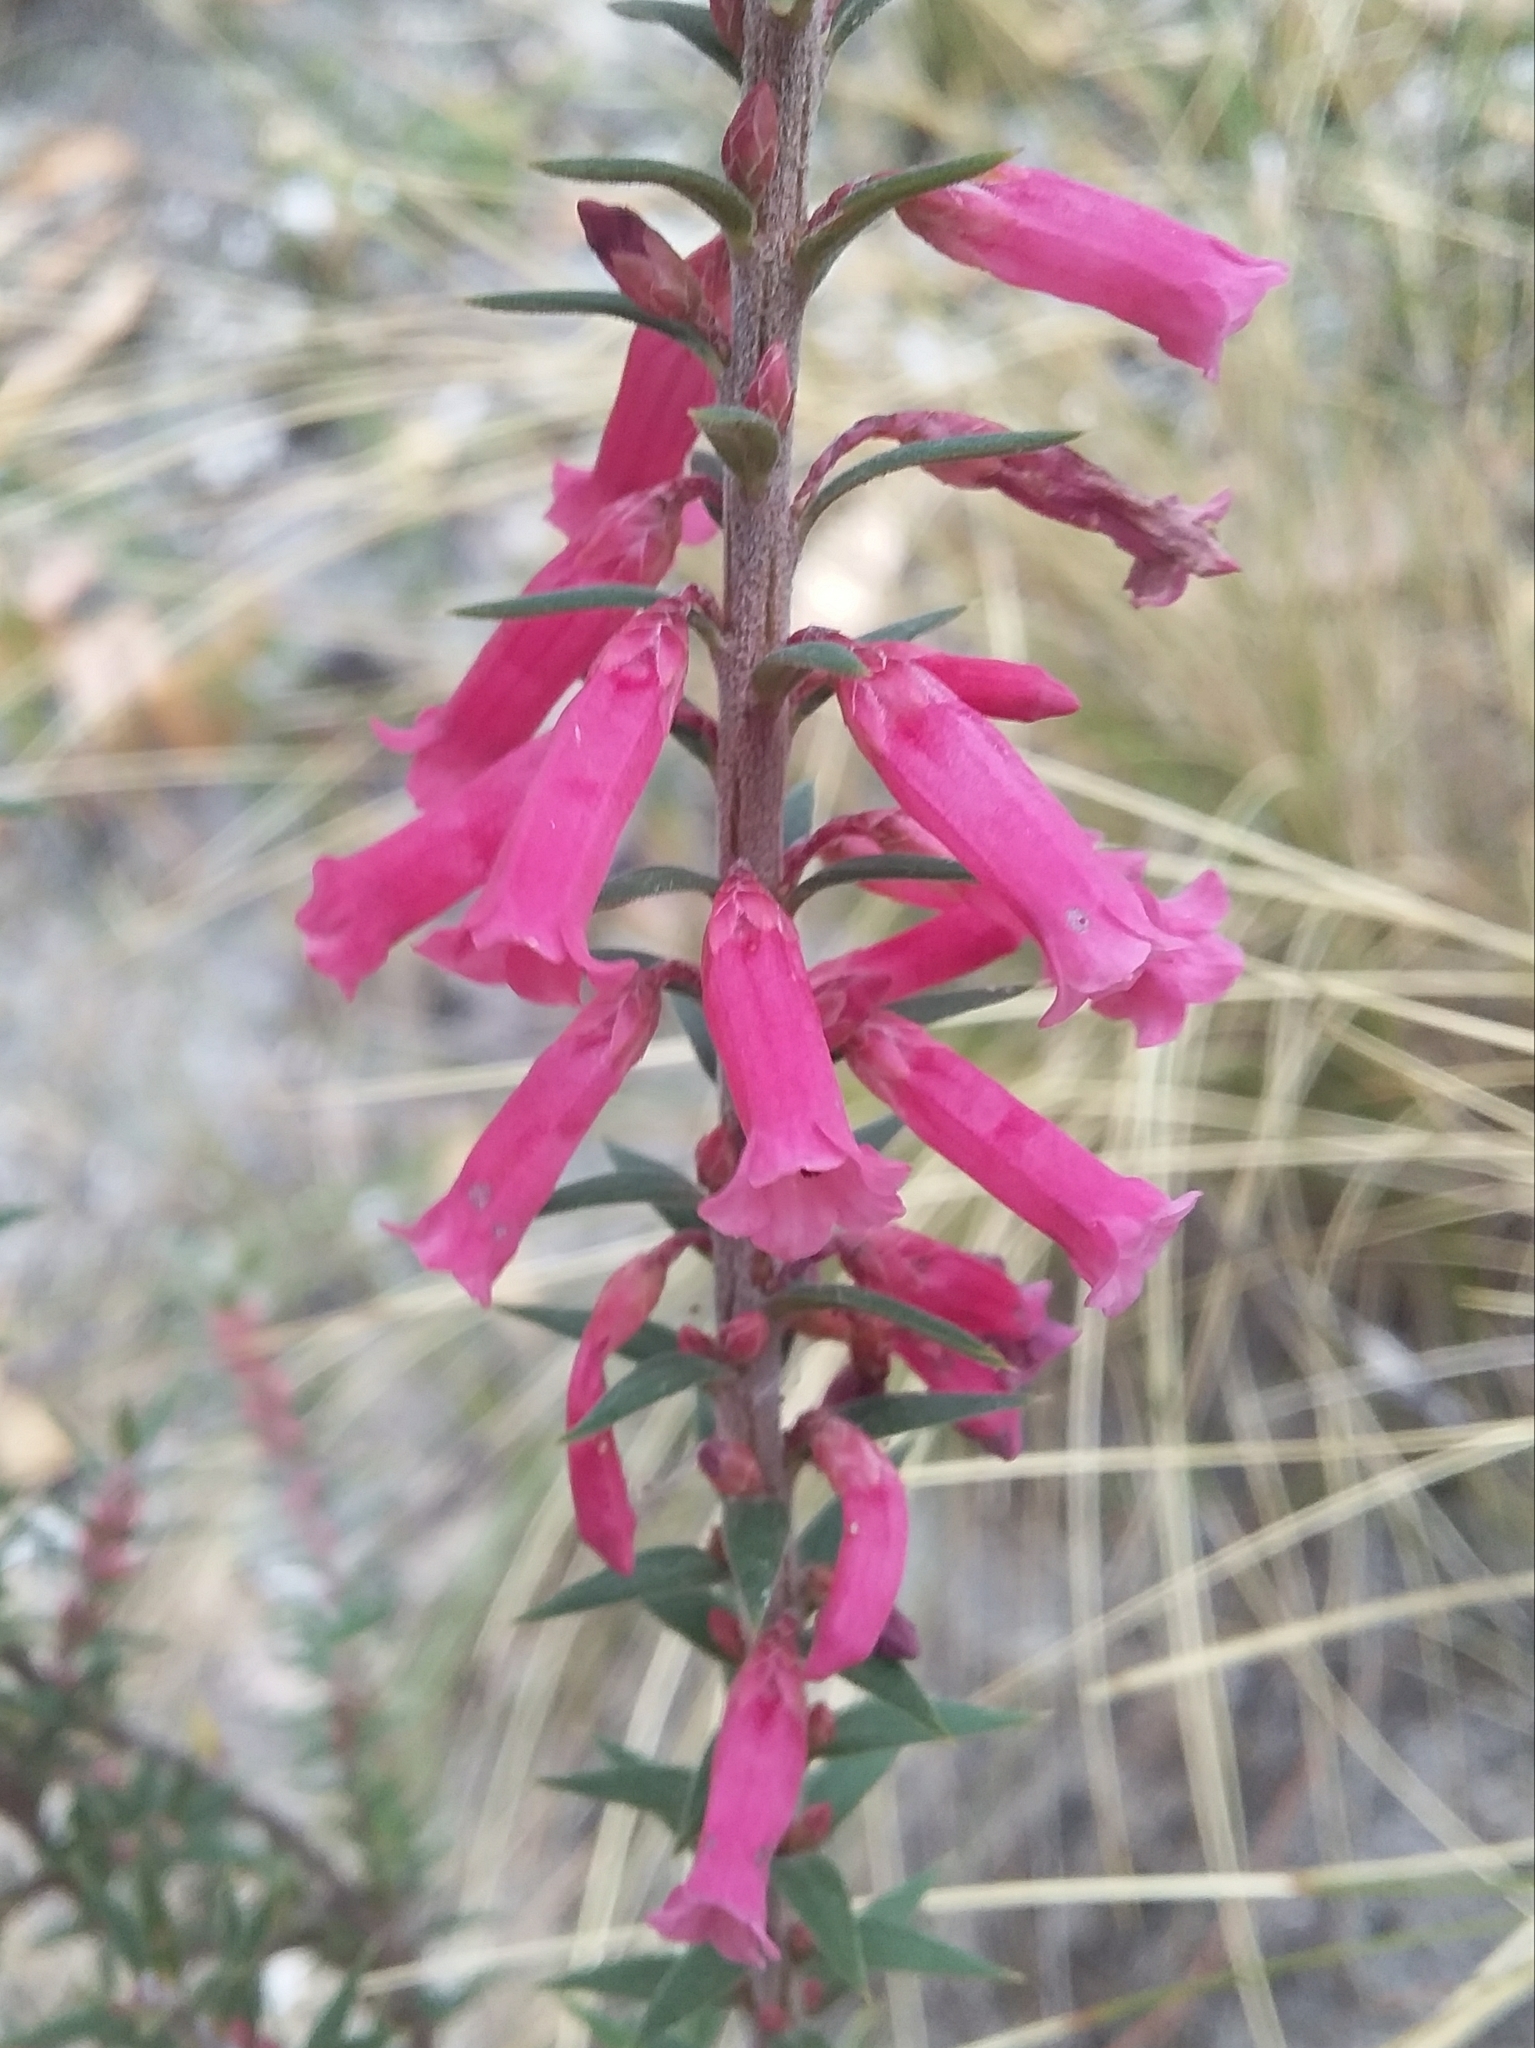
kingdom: Plantae
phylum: Tracheophyta
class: Magnoliopsida
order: Ericales
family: Ericaceae
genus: Epacris
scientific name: Epacris impressa
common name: Common-heath
